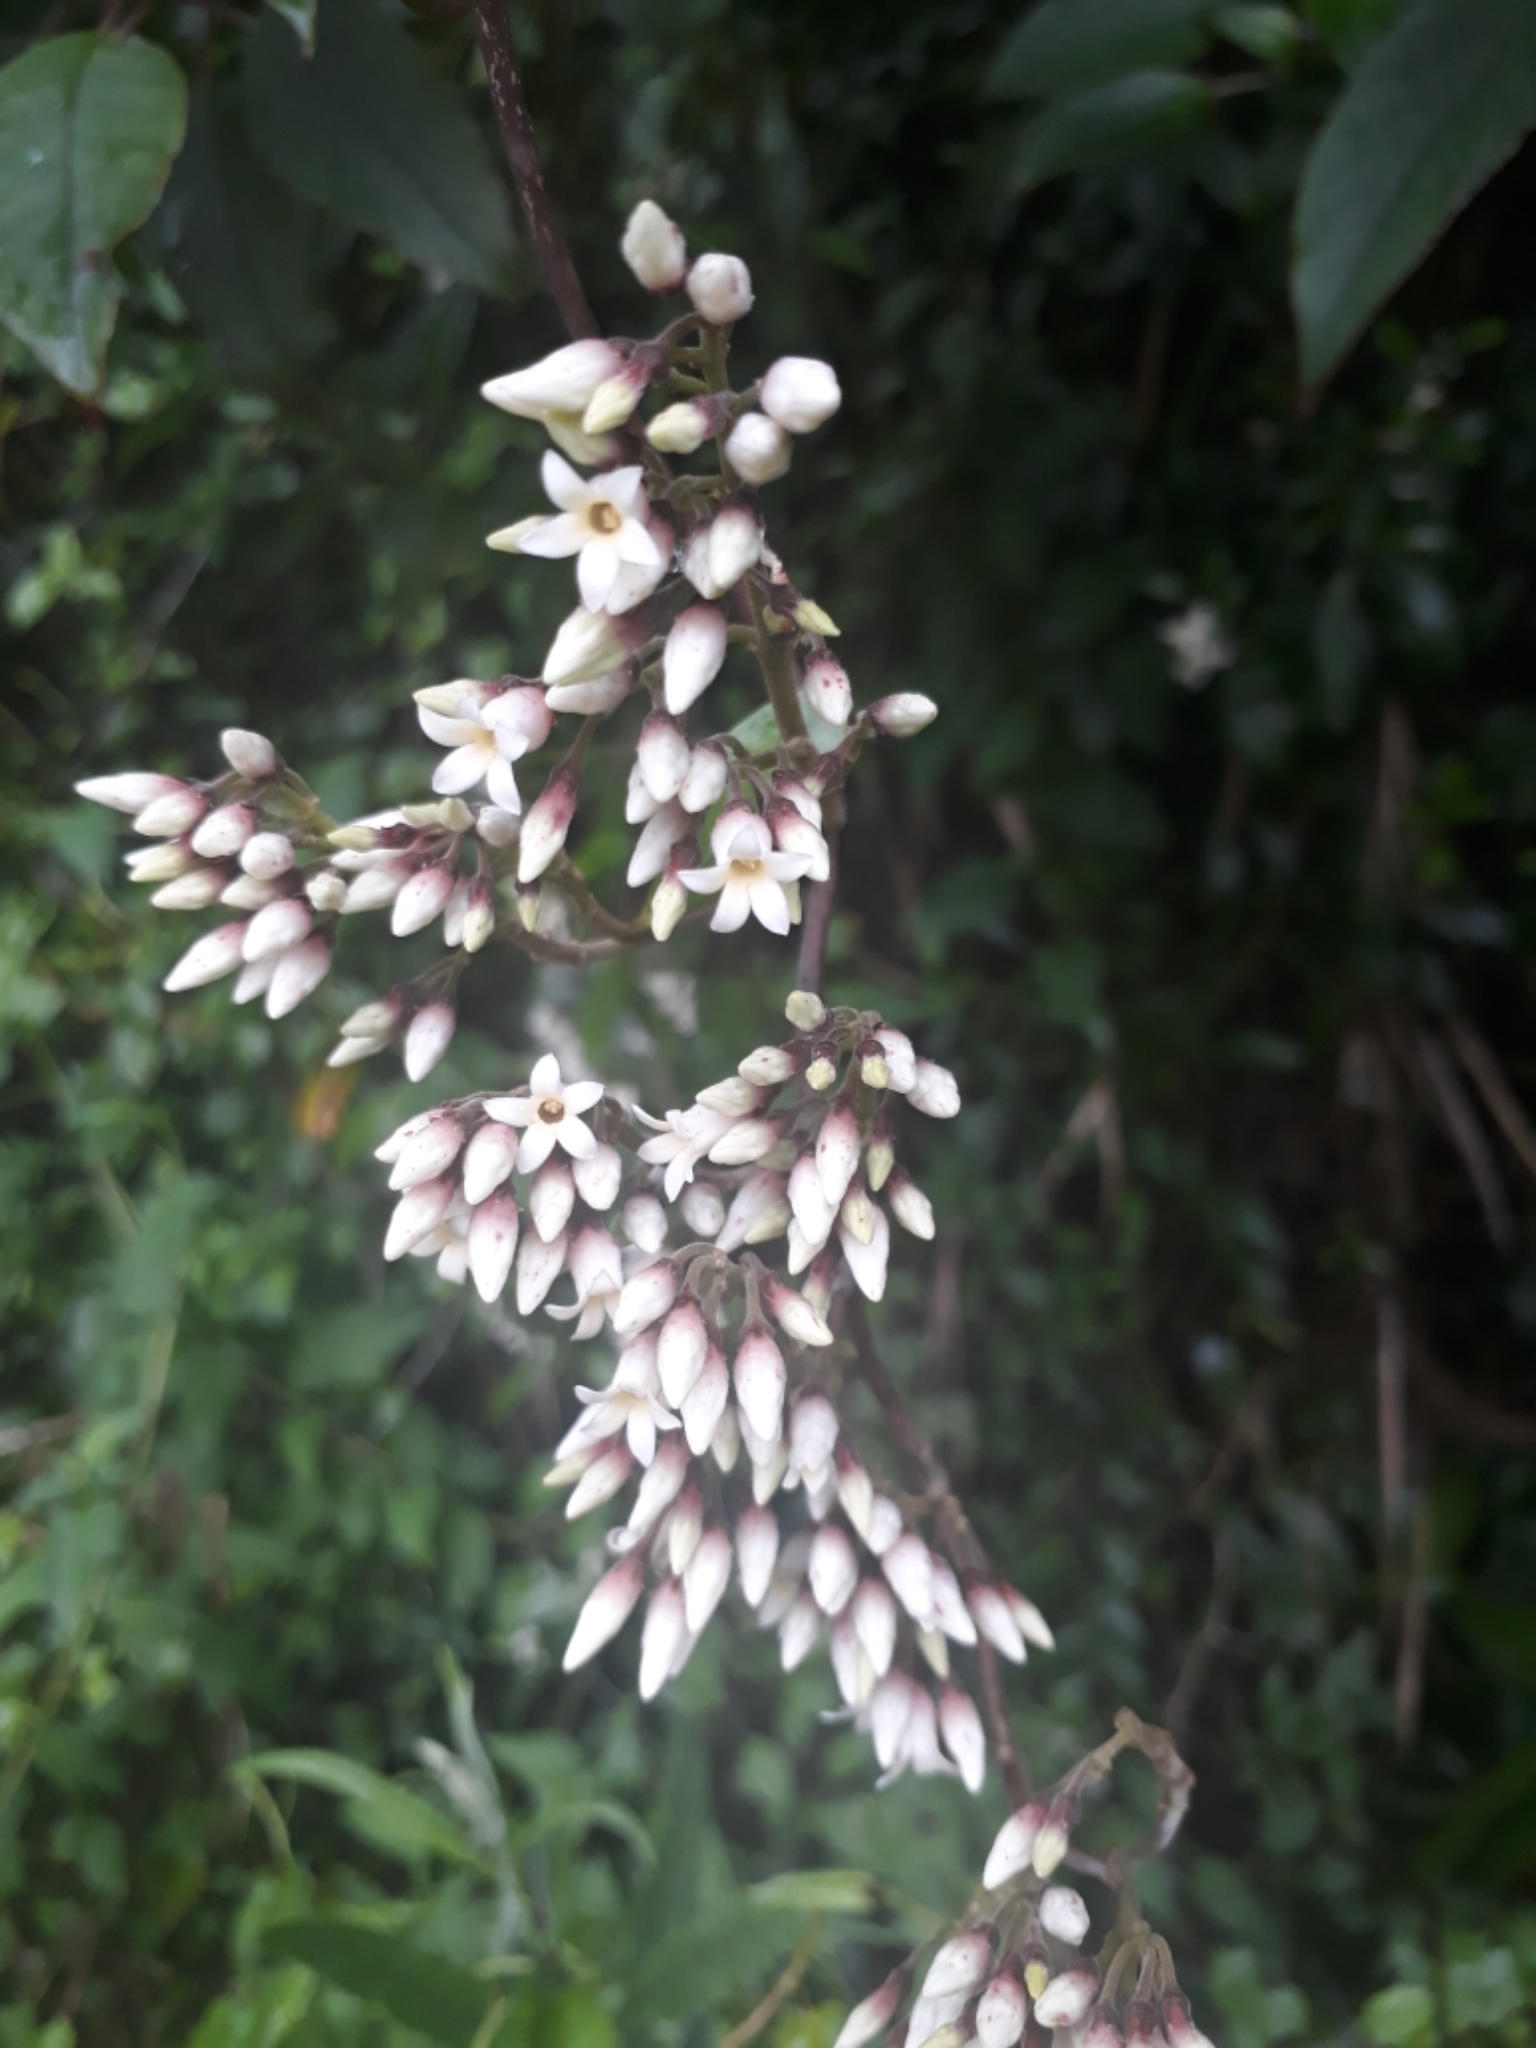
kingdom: Plantae
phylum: Tracheophyta
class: Magnoliopsida
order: Gentianales
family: Apocynaceae
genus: Parsonsia
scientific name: Parsonsia heterophylla
